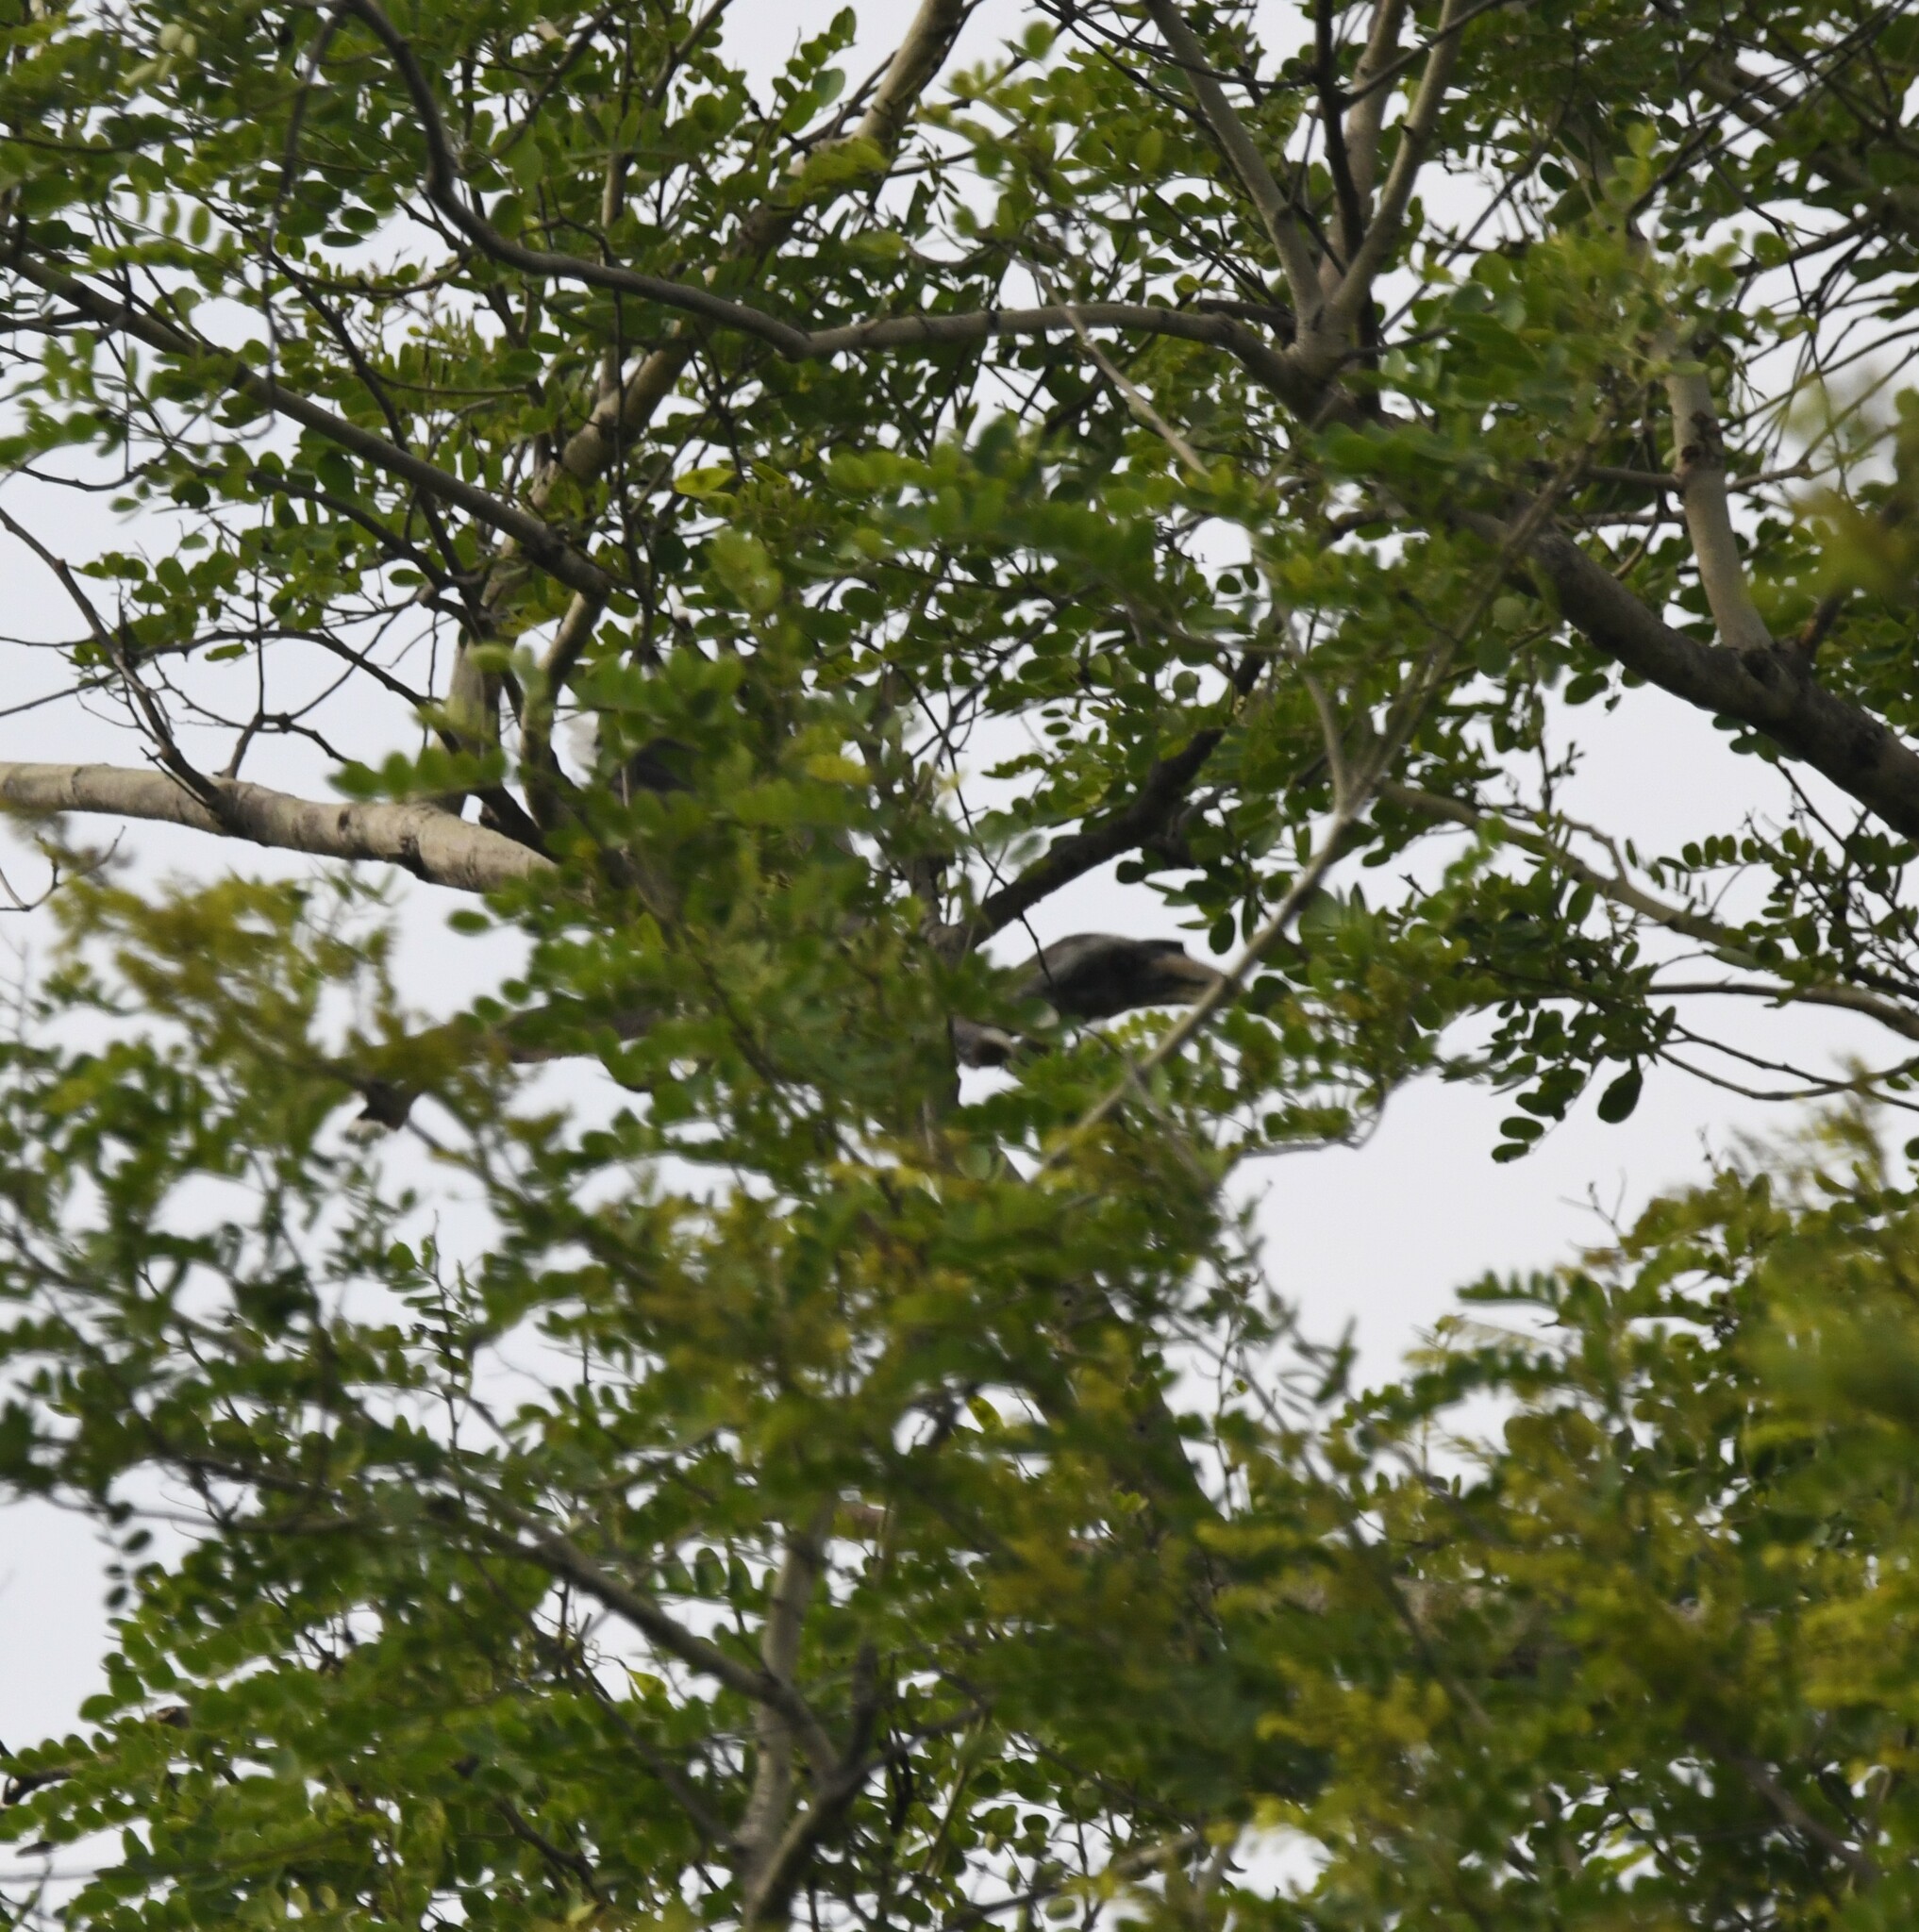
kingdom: Animalia
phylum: Chordata
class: Aves
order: Bucerotiformes
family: Bucerotidae
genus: Ocyceros
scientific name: Ocyceros birostris
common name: Indian grey hornbill
